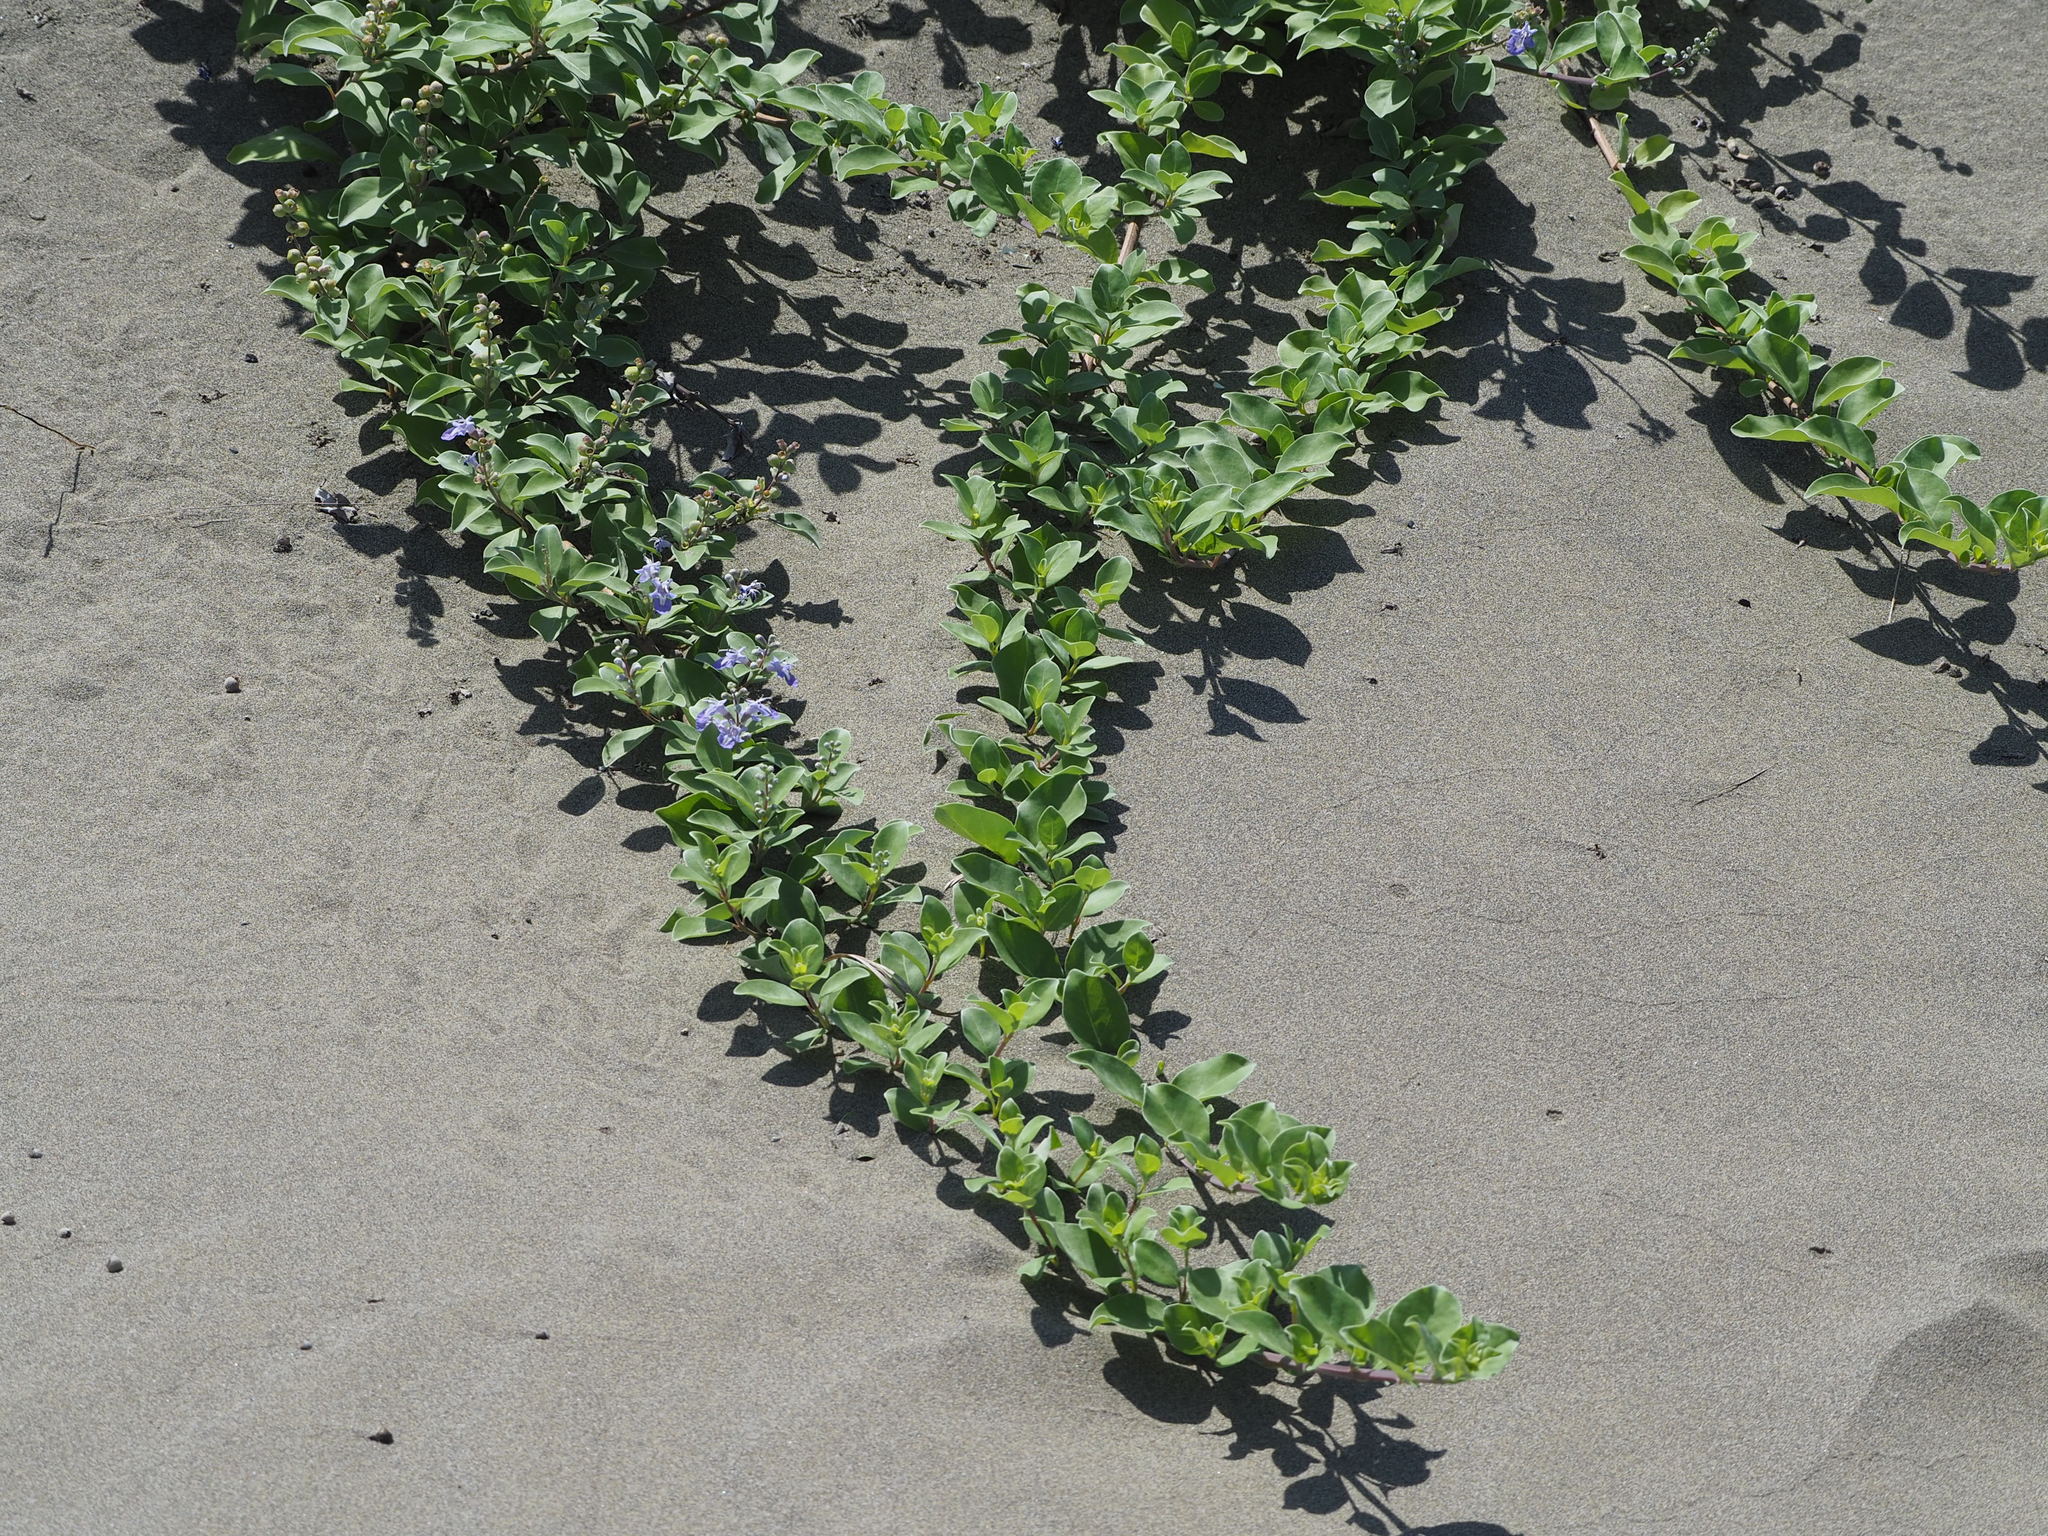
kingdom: Plantae
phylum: Tracheophyta
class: Magnoliopsida
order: Lamiales
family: Lamiaceae
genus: Vitex
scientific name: Vitex rotundifolia
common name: Beach vitex
